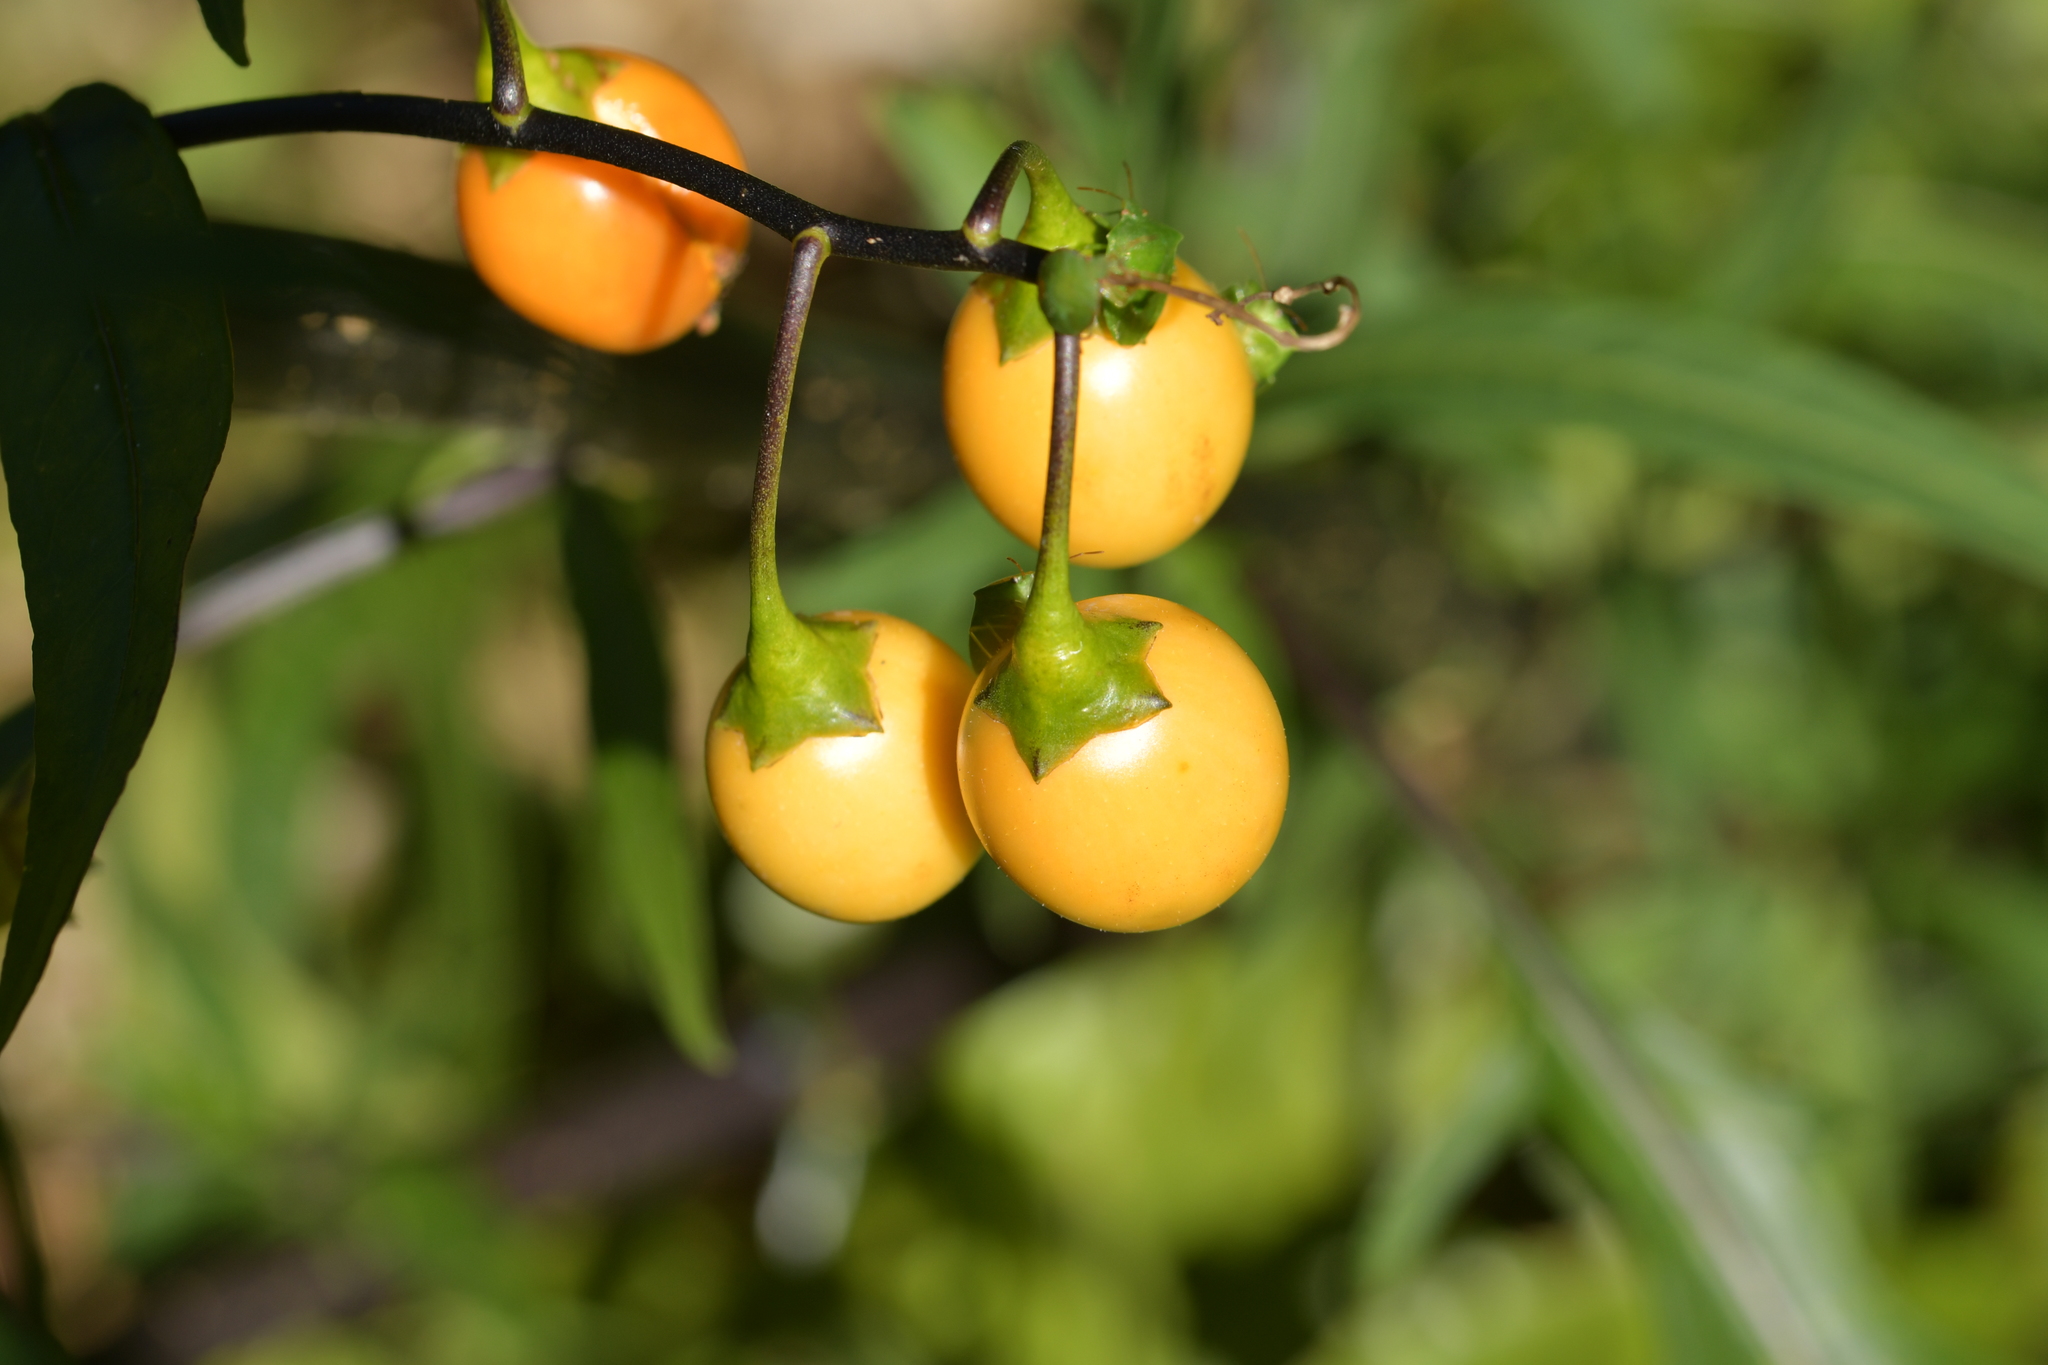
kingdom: Plantae
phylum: Tracheophyta
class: Magnoliopsida
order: Solanales
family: Solanaceae
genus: Solanum
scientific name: Solanum laciniatum
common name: Kangaroo-apple
